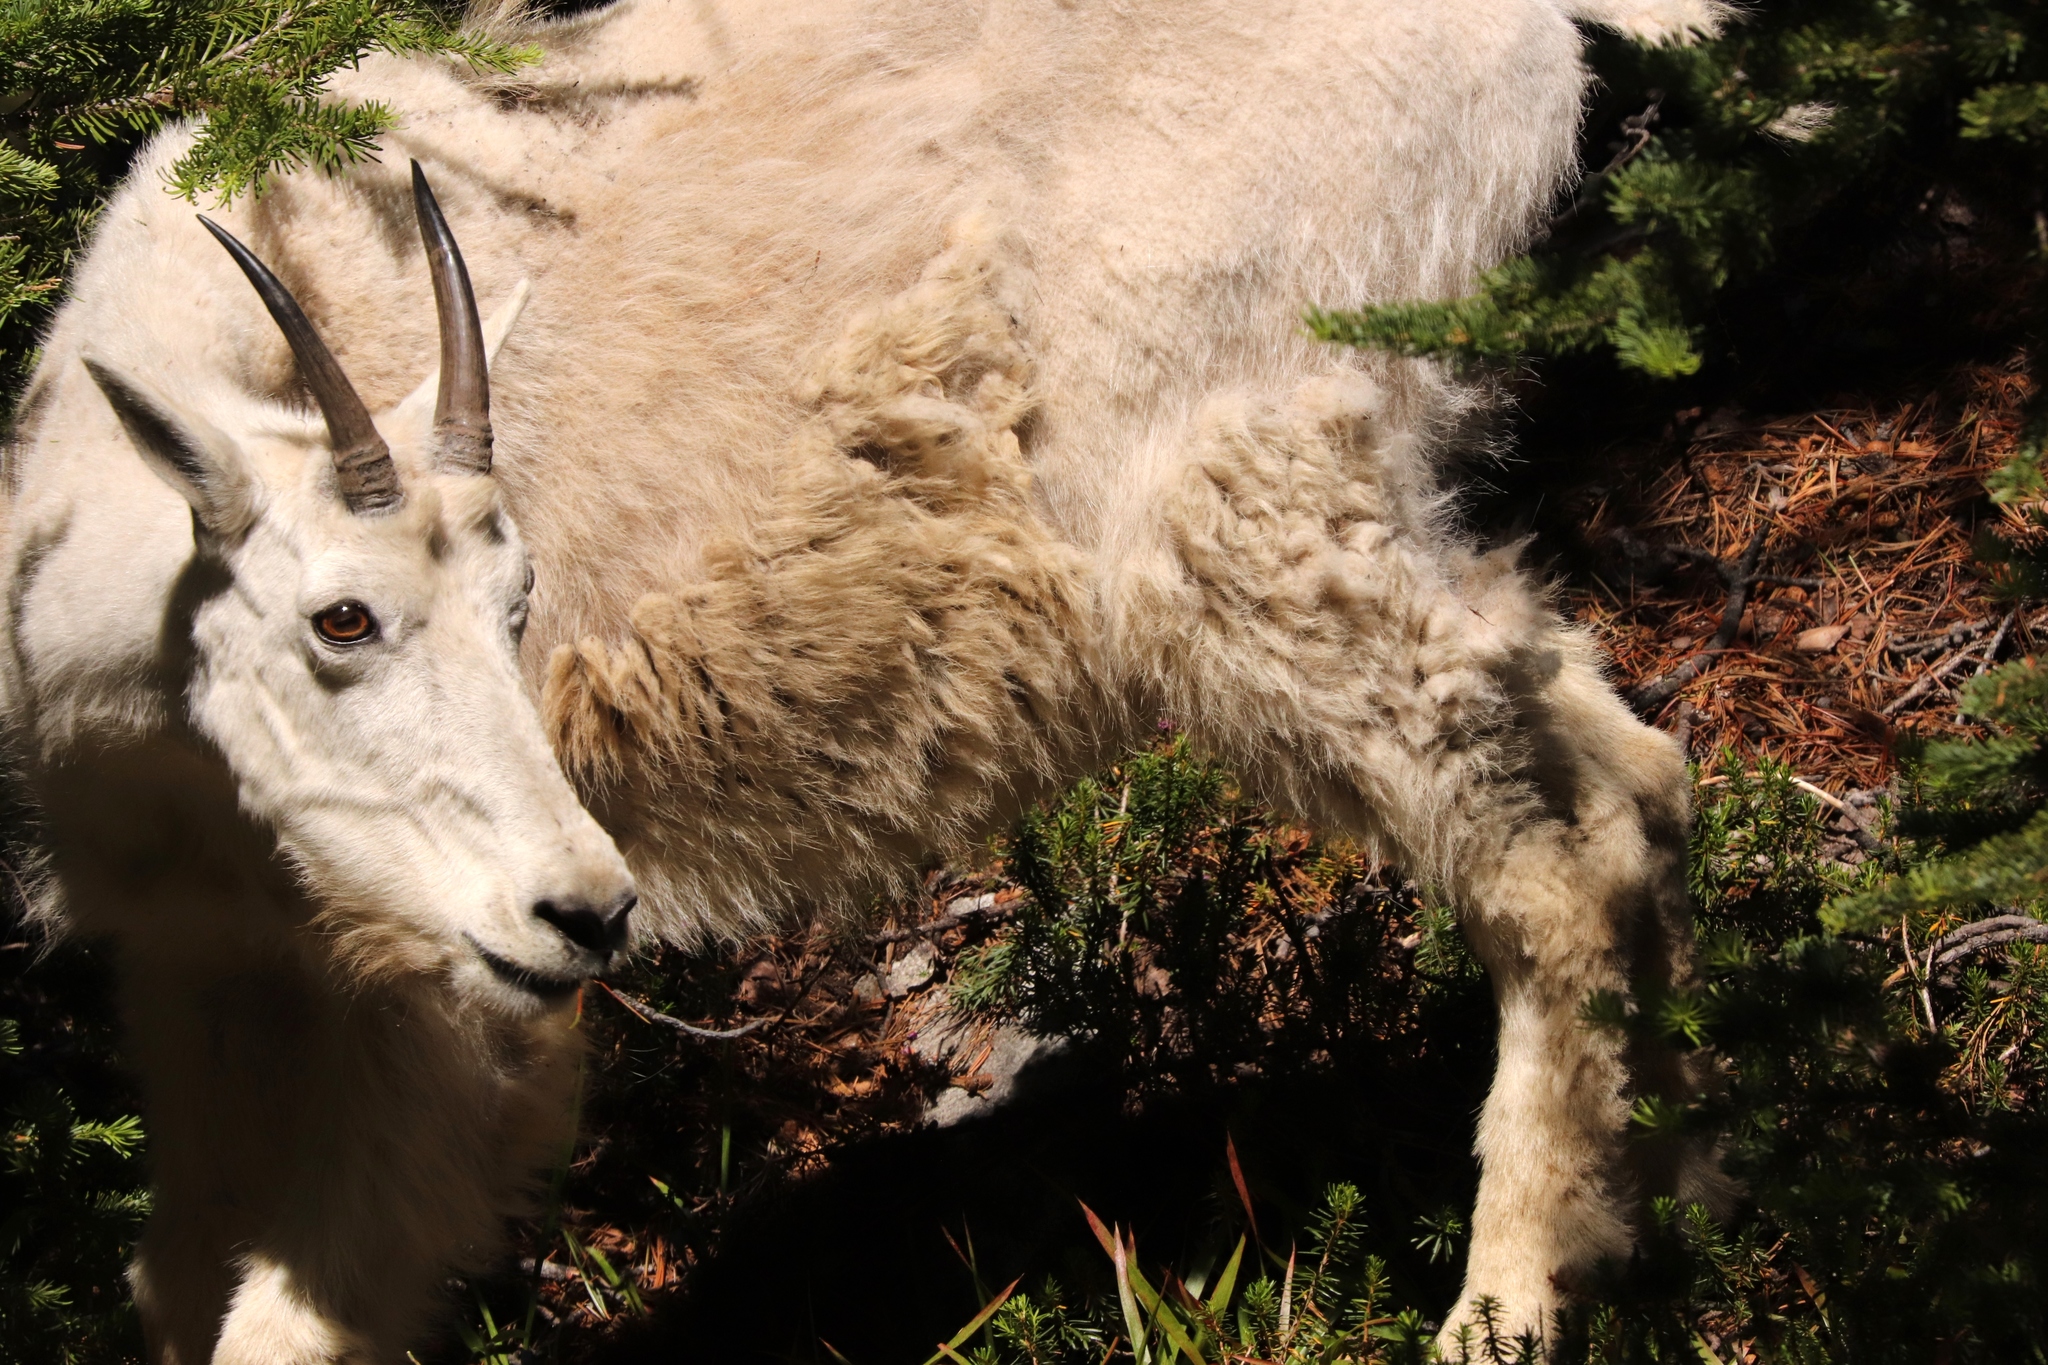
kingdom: Animalia
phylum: Chordata
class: Mammalia
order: Artiodactyla
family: Bovidae
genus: Oreamnos
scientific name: Oreamnos americanus
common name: Mountain goat
